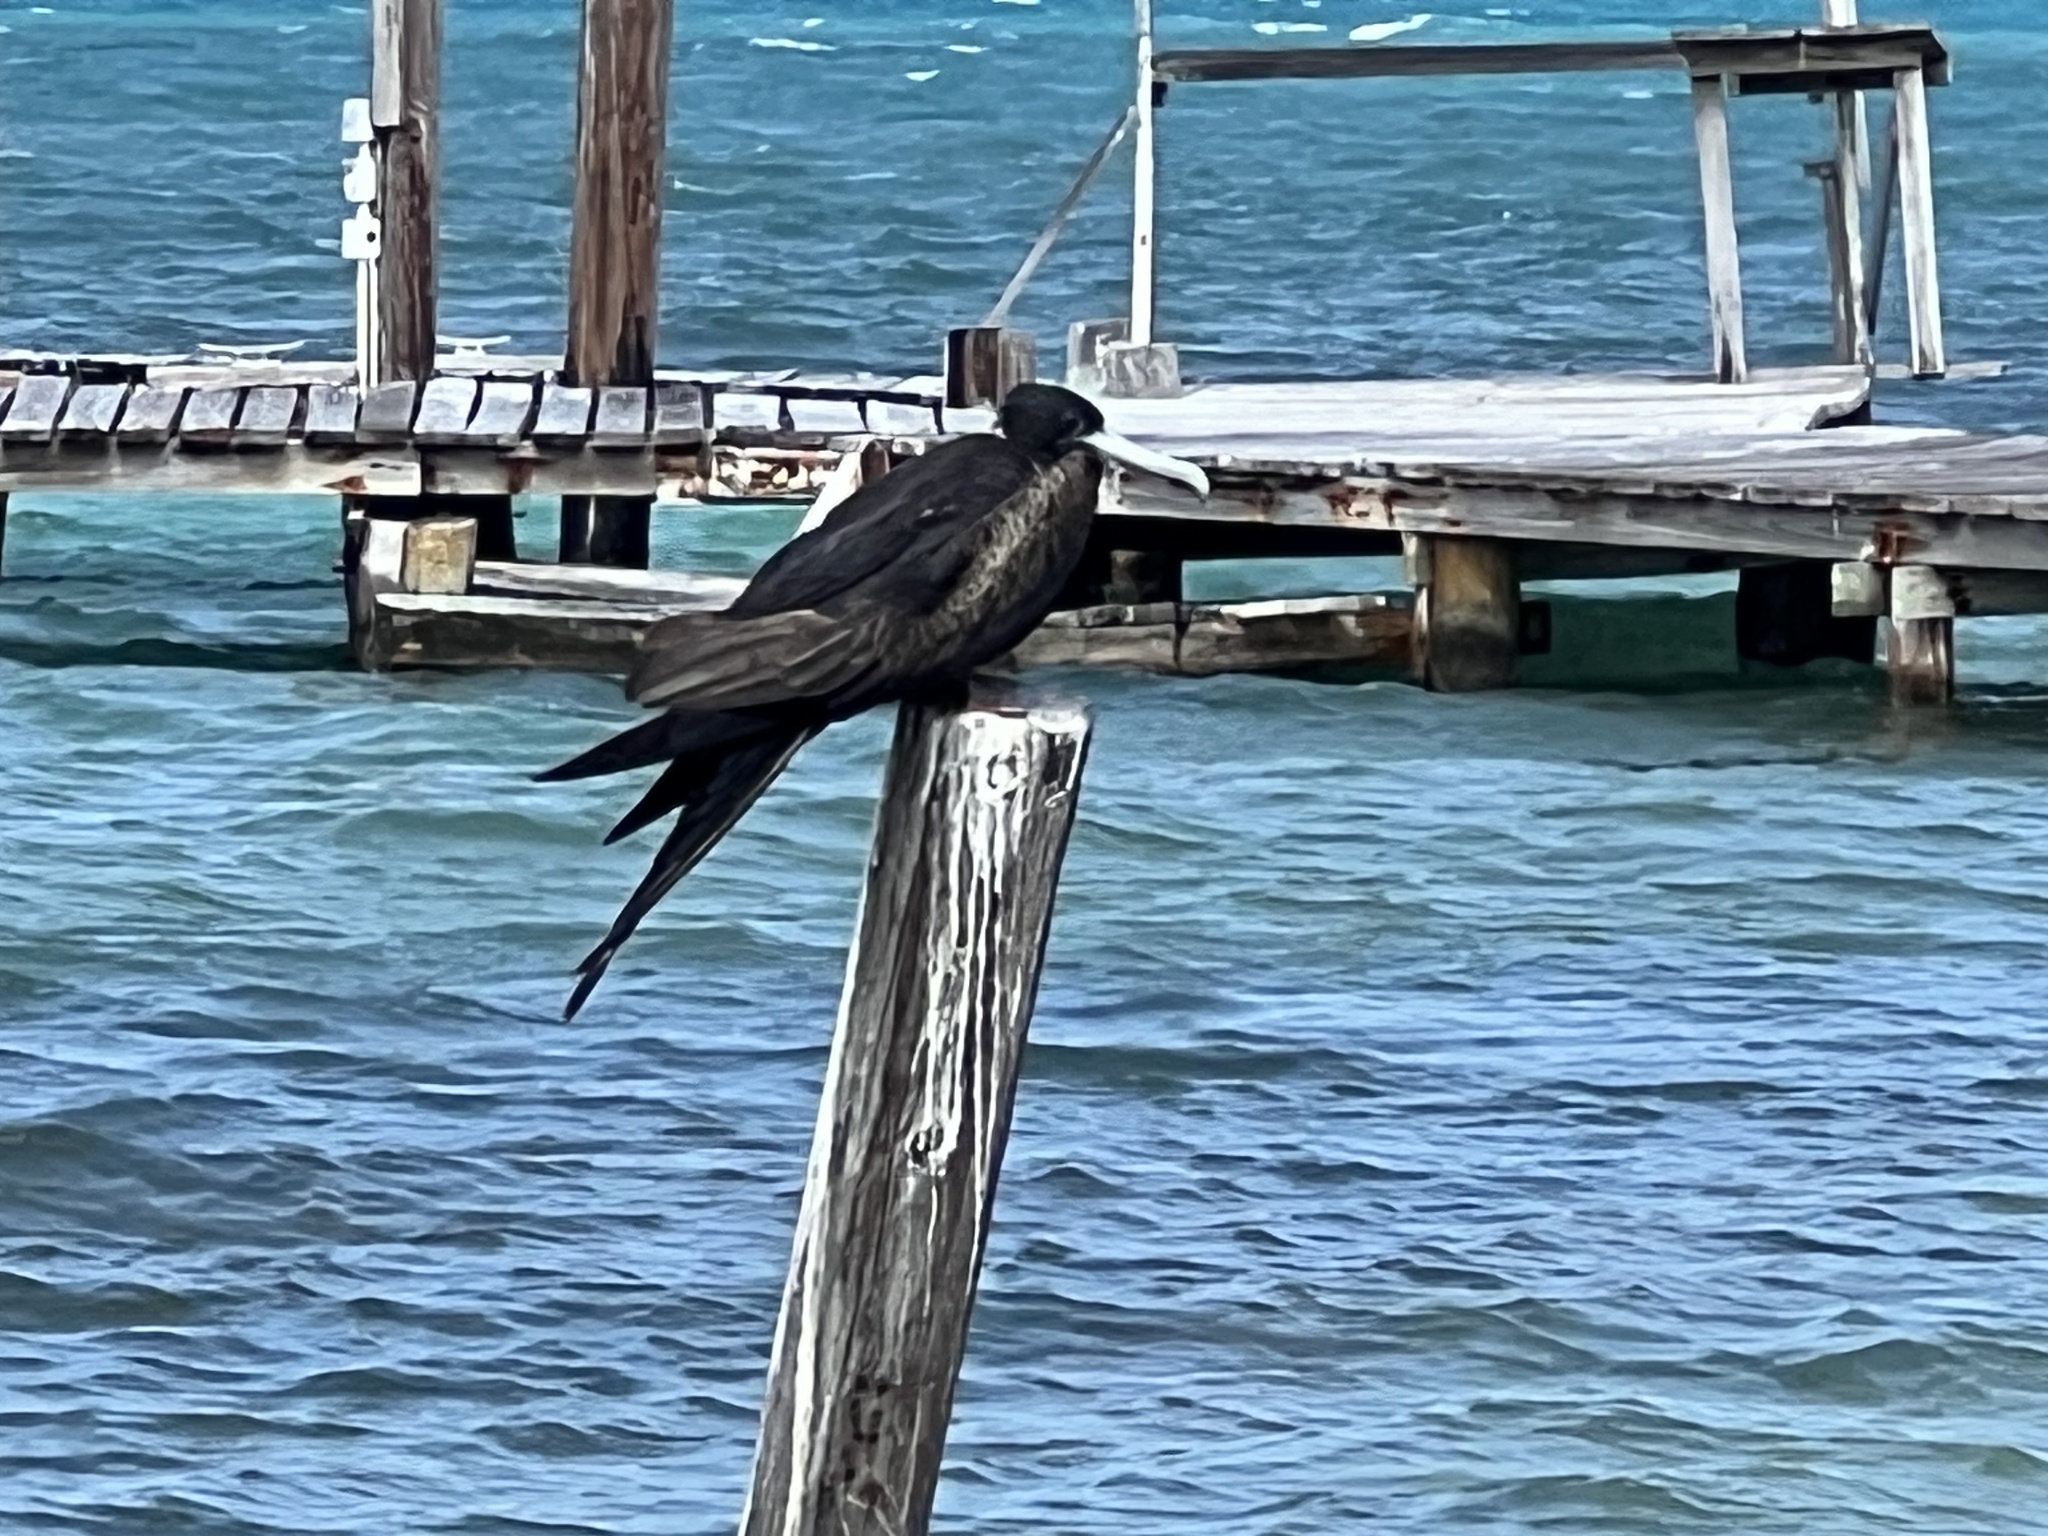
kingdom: Animalia
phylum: Chordata
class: Aves
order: Suliformes
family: Fregatidae
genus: Fregata
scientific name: Fregata magnificens
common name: Magnificent frigatebird
